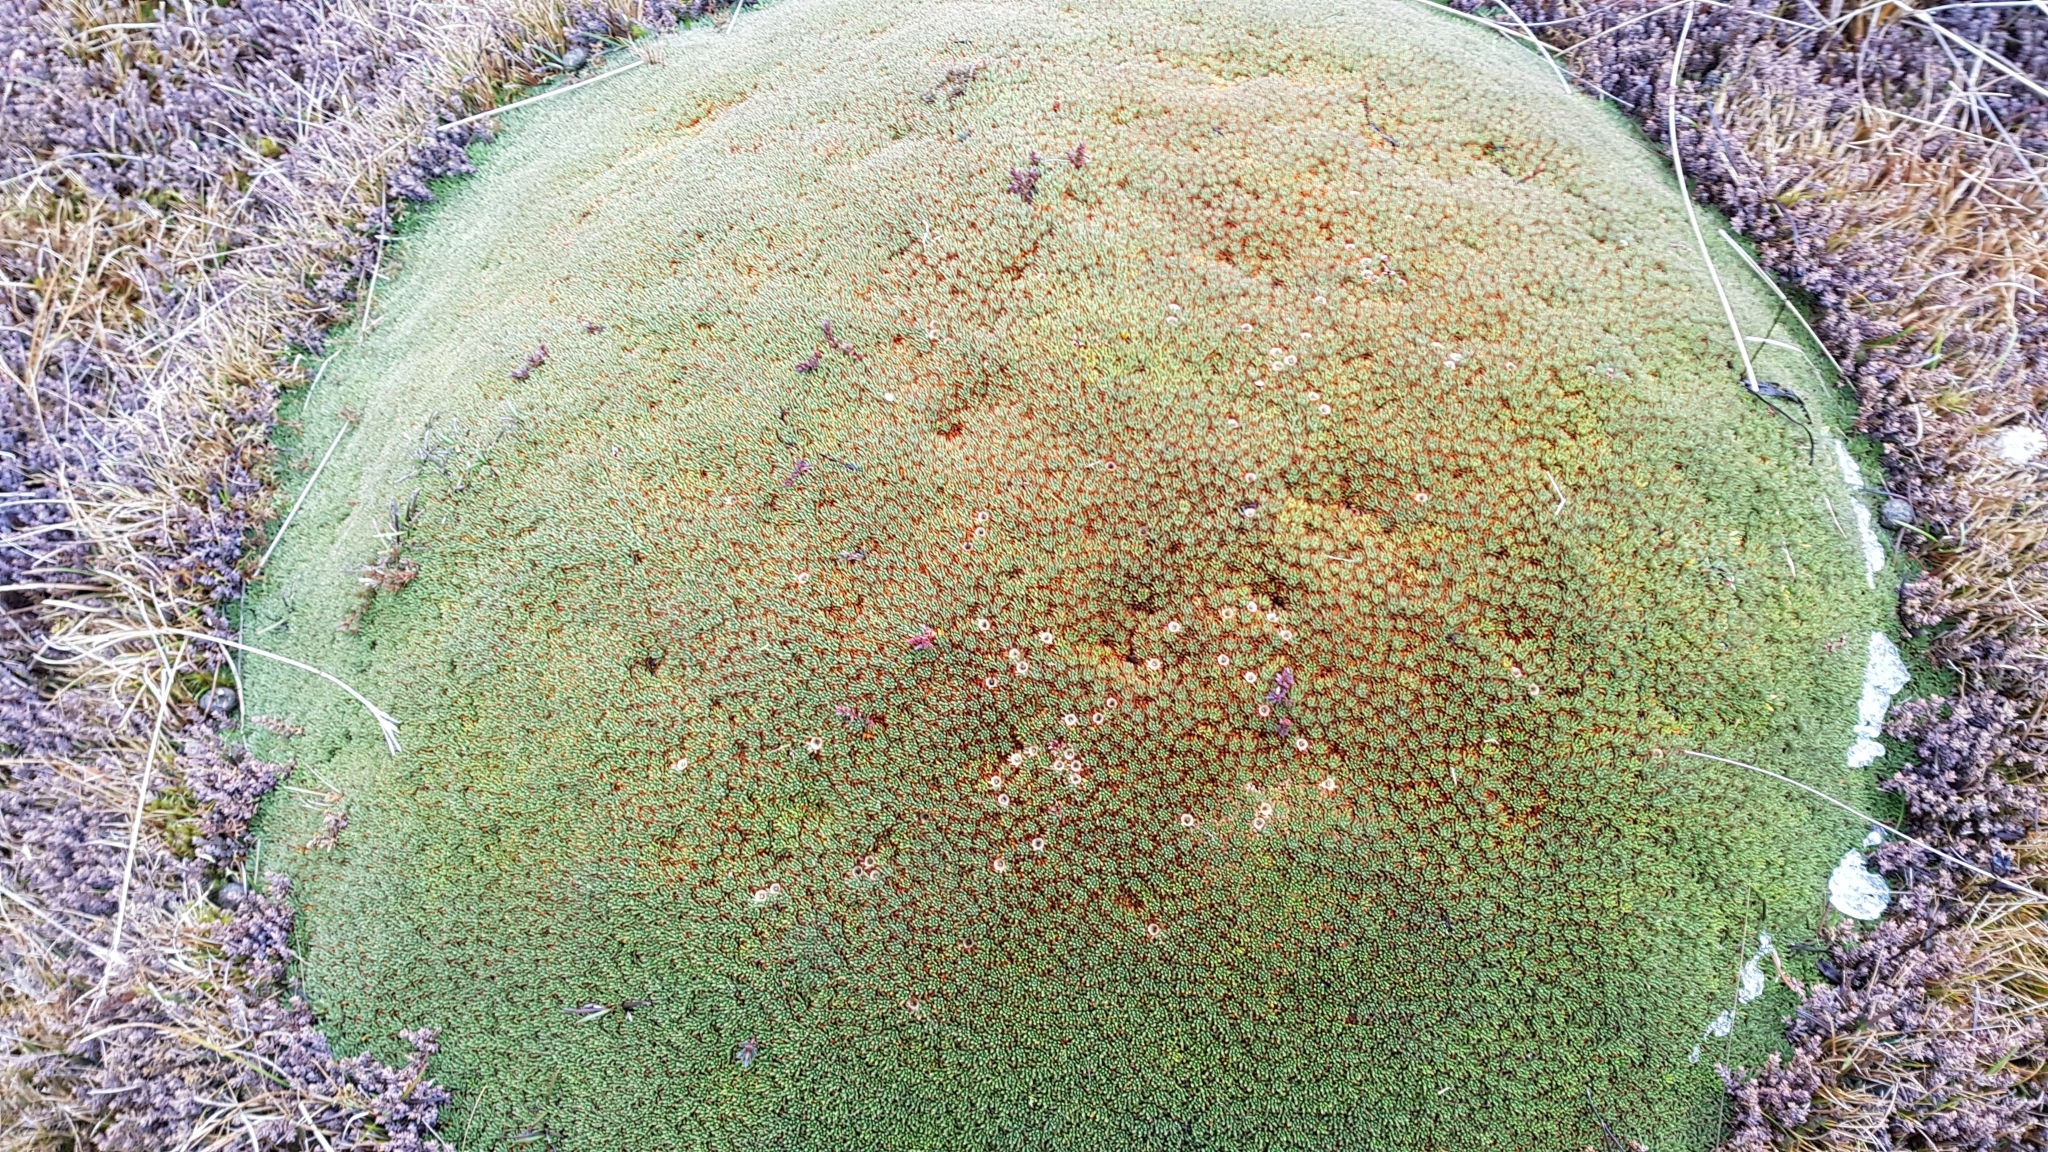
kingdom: Plantae
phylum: Tracheophyta
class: Magnoliopsida
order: Asterales
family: Stylidiaceae
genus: Donatia
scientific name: Donatia novae-zelandiae
